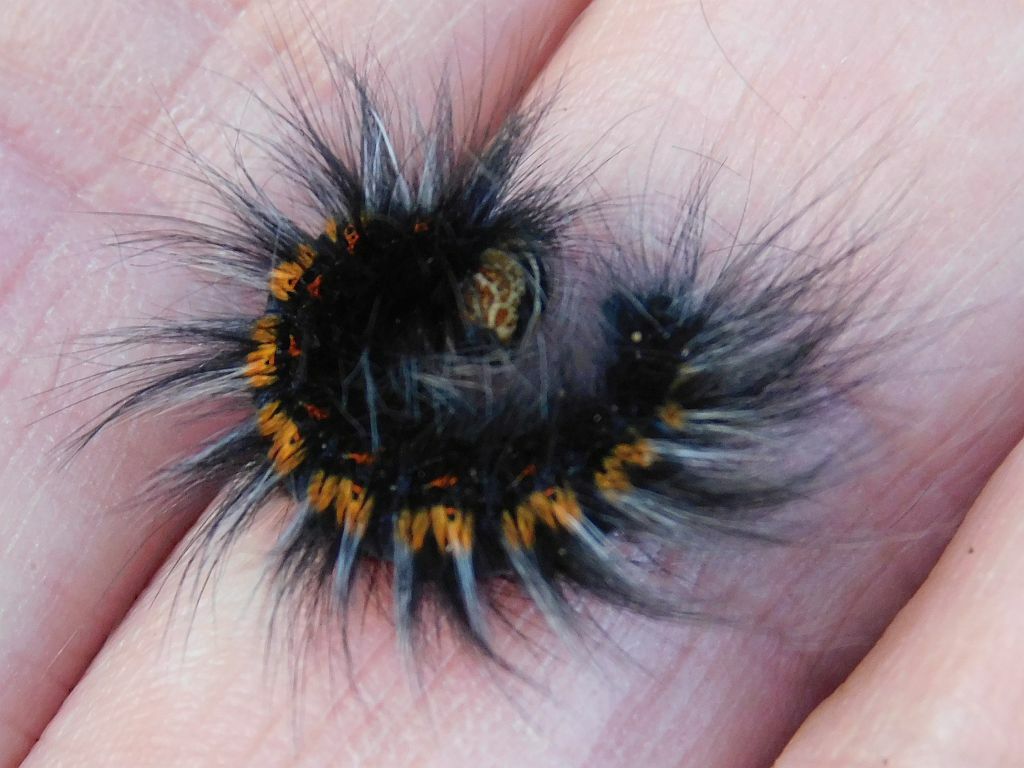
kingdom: Animalia
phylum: Arthropoda
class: Insecta
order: Lepidoptera
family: Lasiocampidae
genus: Mesocelis
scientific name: Mesocelis monticola
